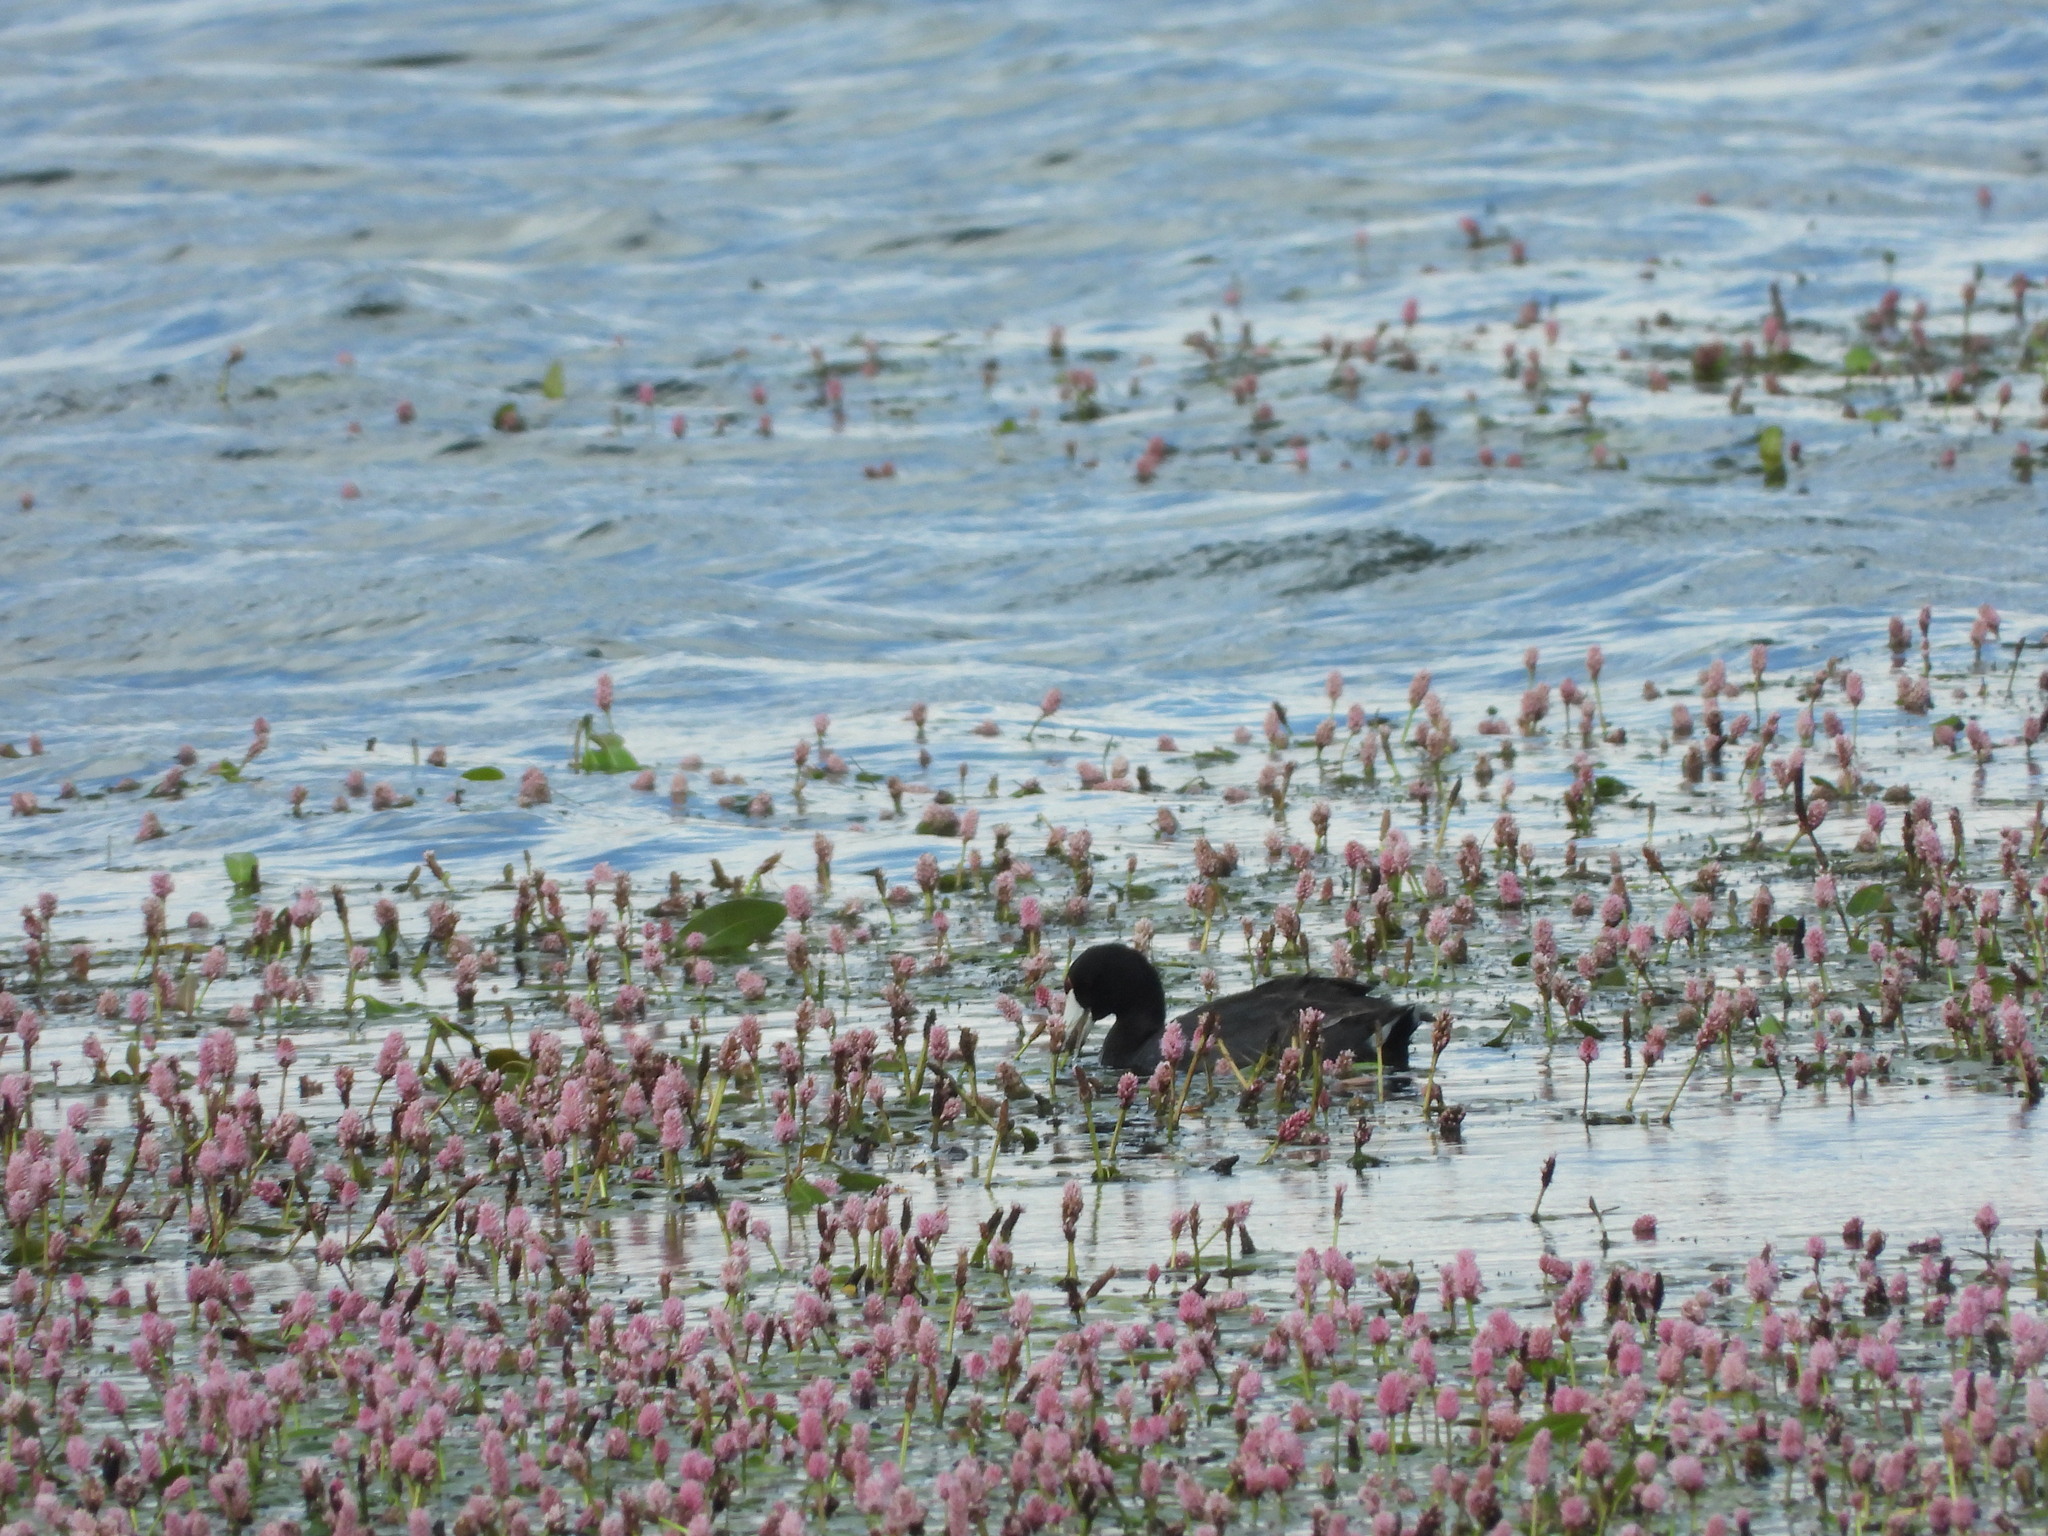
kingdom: Animalia
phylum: Chordata
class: Aves
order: Gruiformes
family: Rallidae
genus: Fulica
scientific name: Fulica americana
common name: American coot
